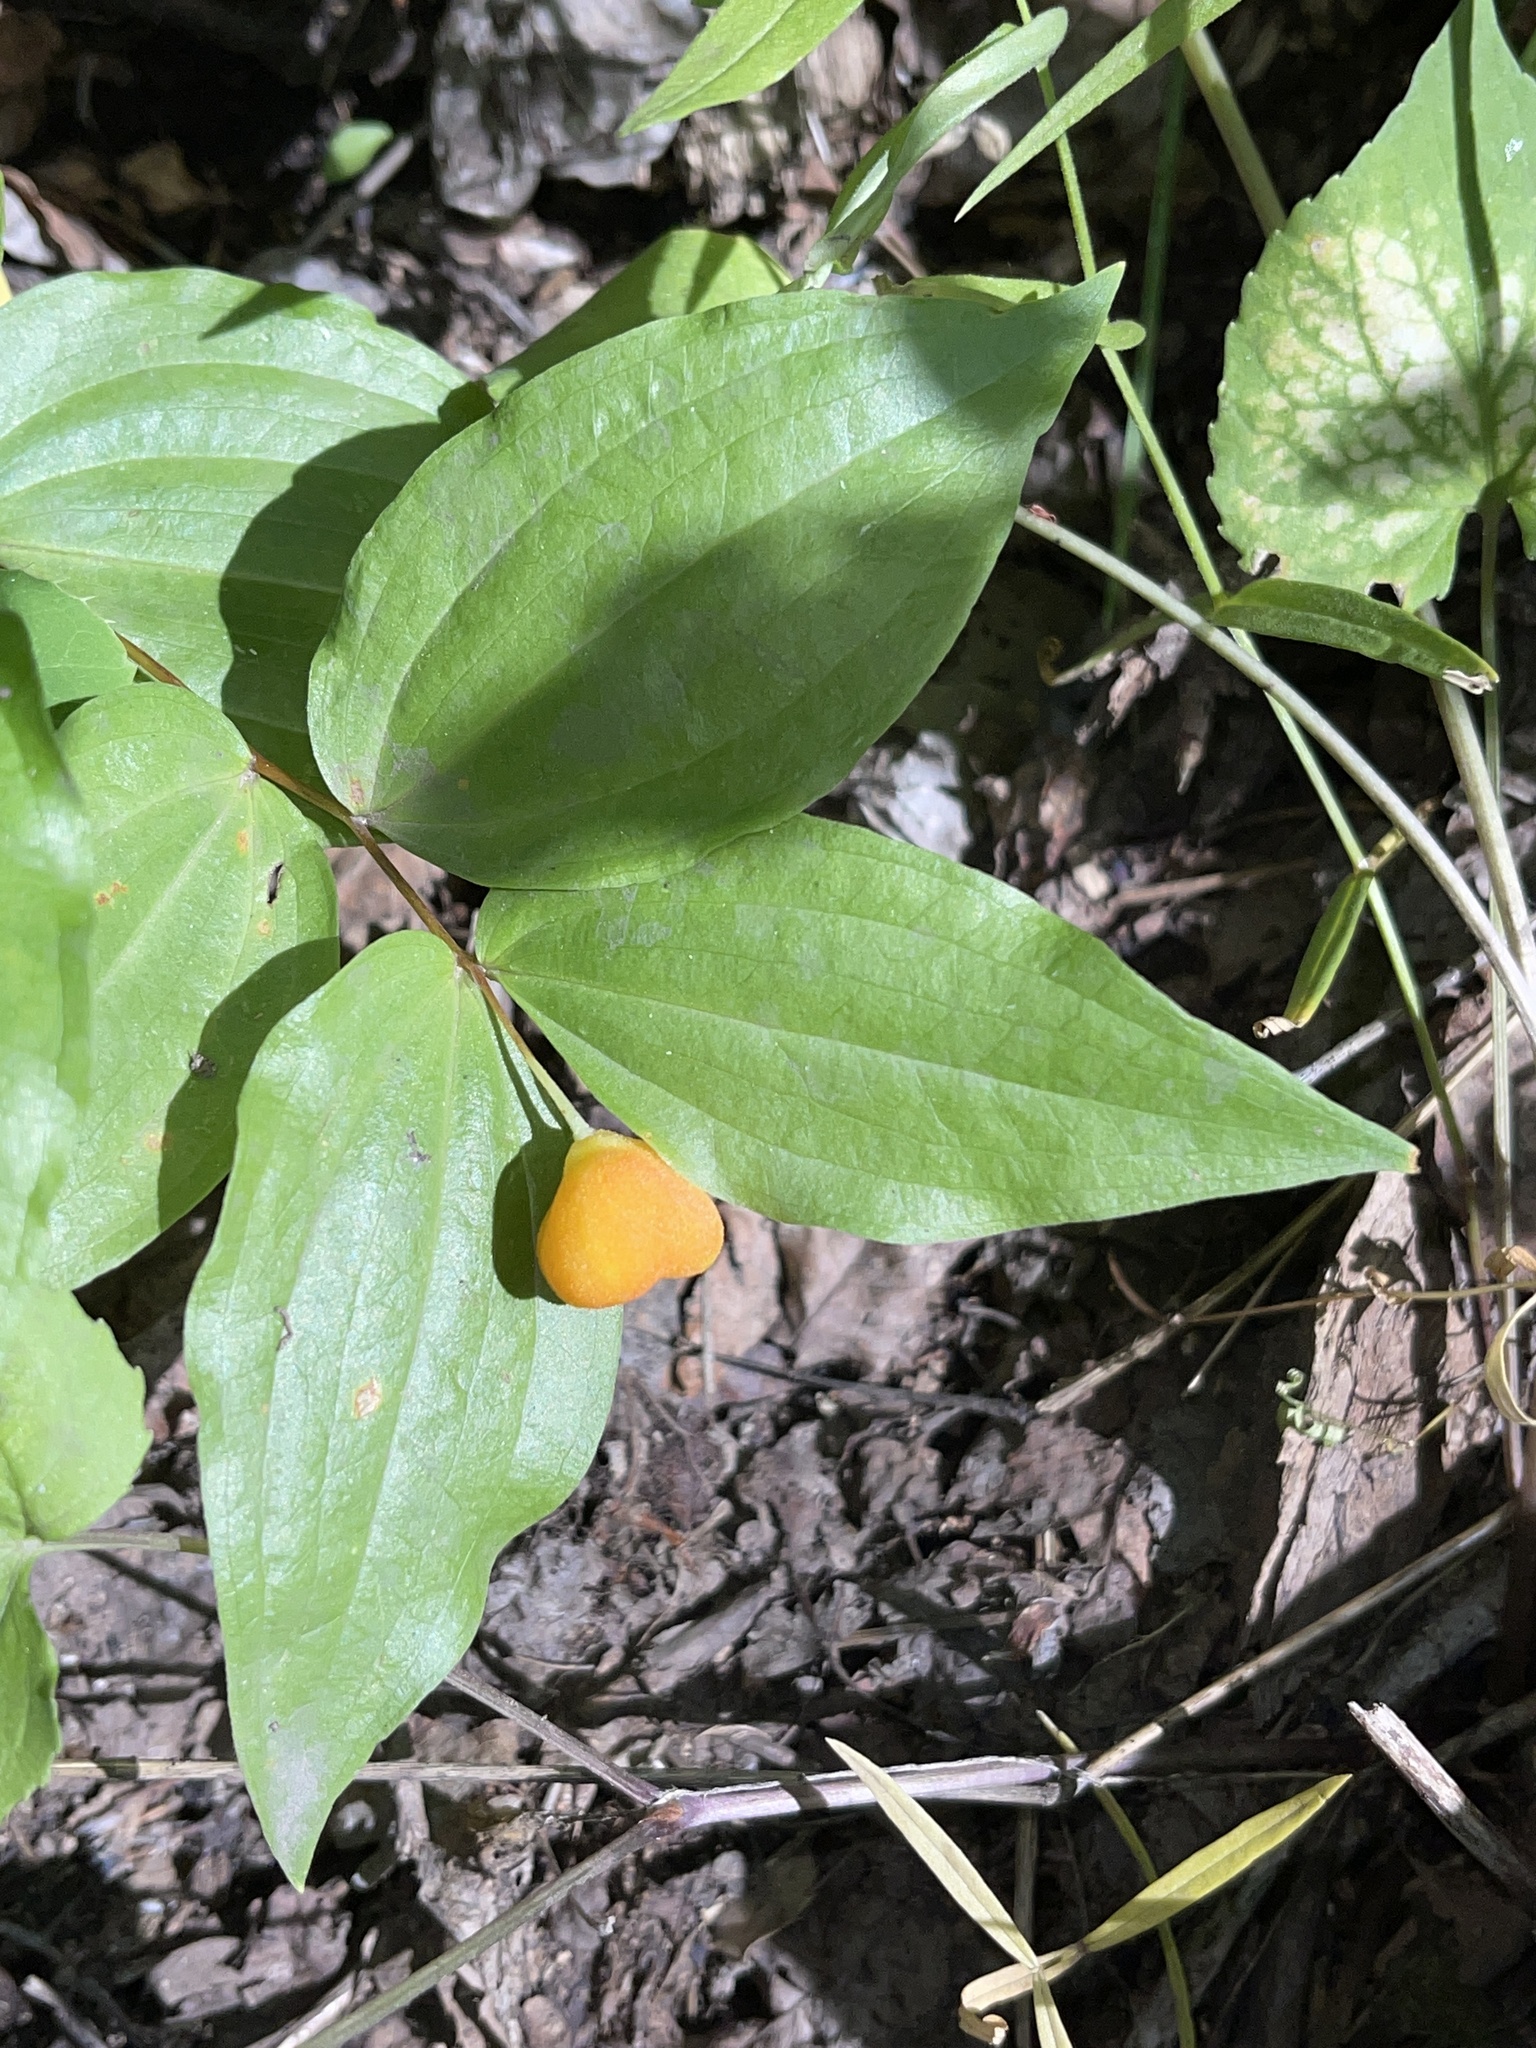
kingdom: Plantae
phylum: Tracheophyta
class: Liliopsida
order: Liliales
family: Liliaceae
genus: Prosartes
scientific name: Prosartes trachycarpa
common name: Rough-fruit fairy-bells
